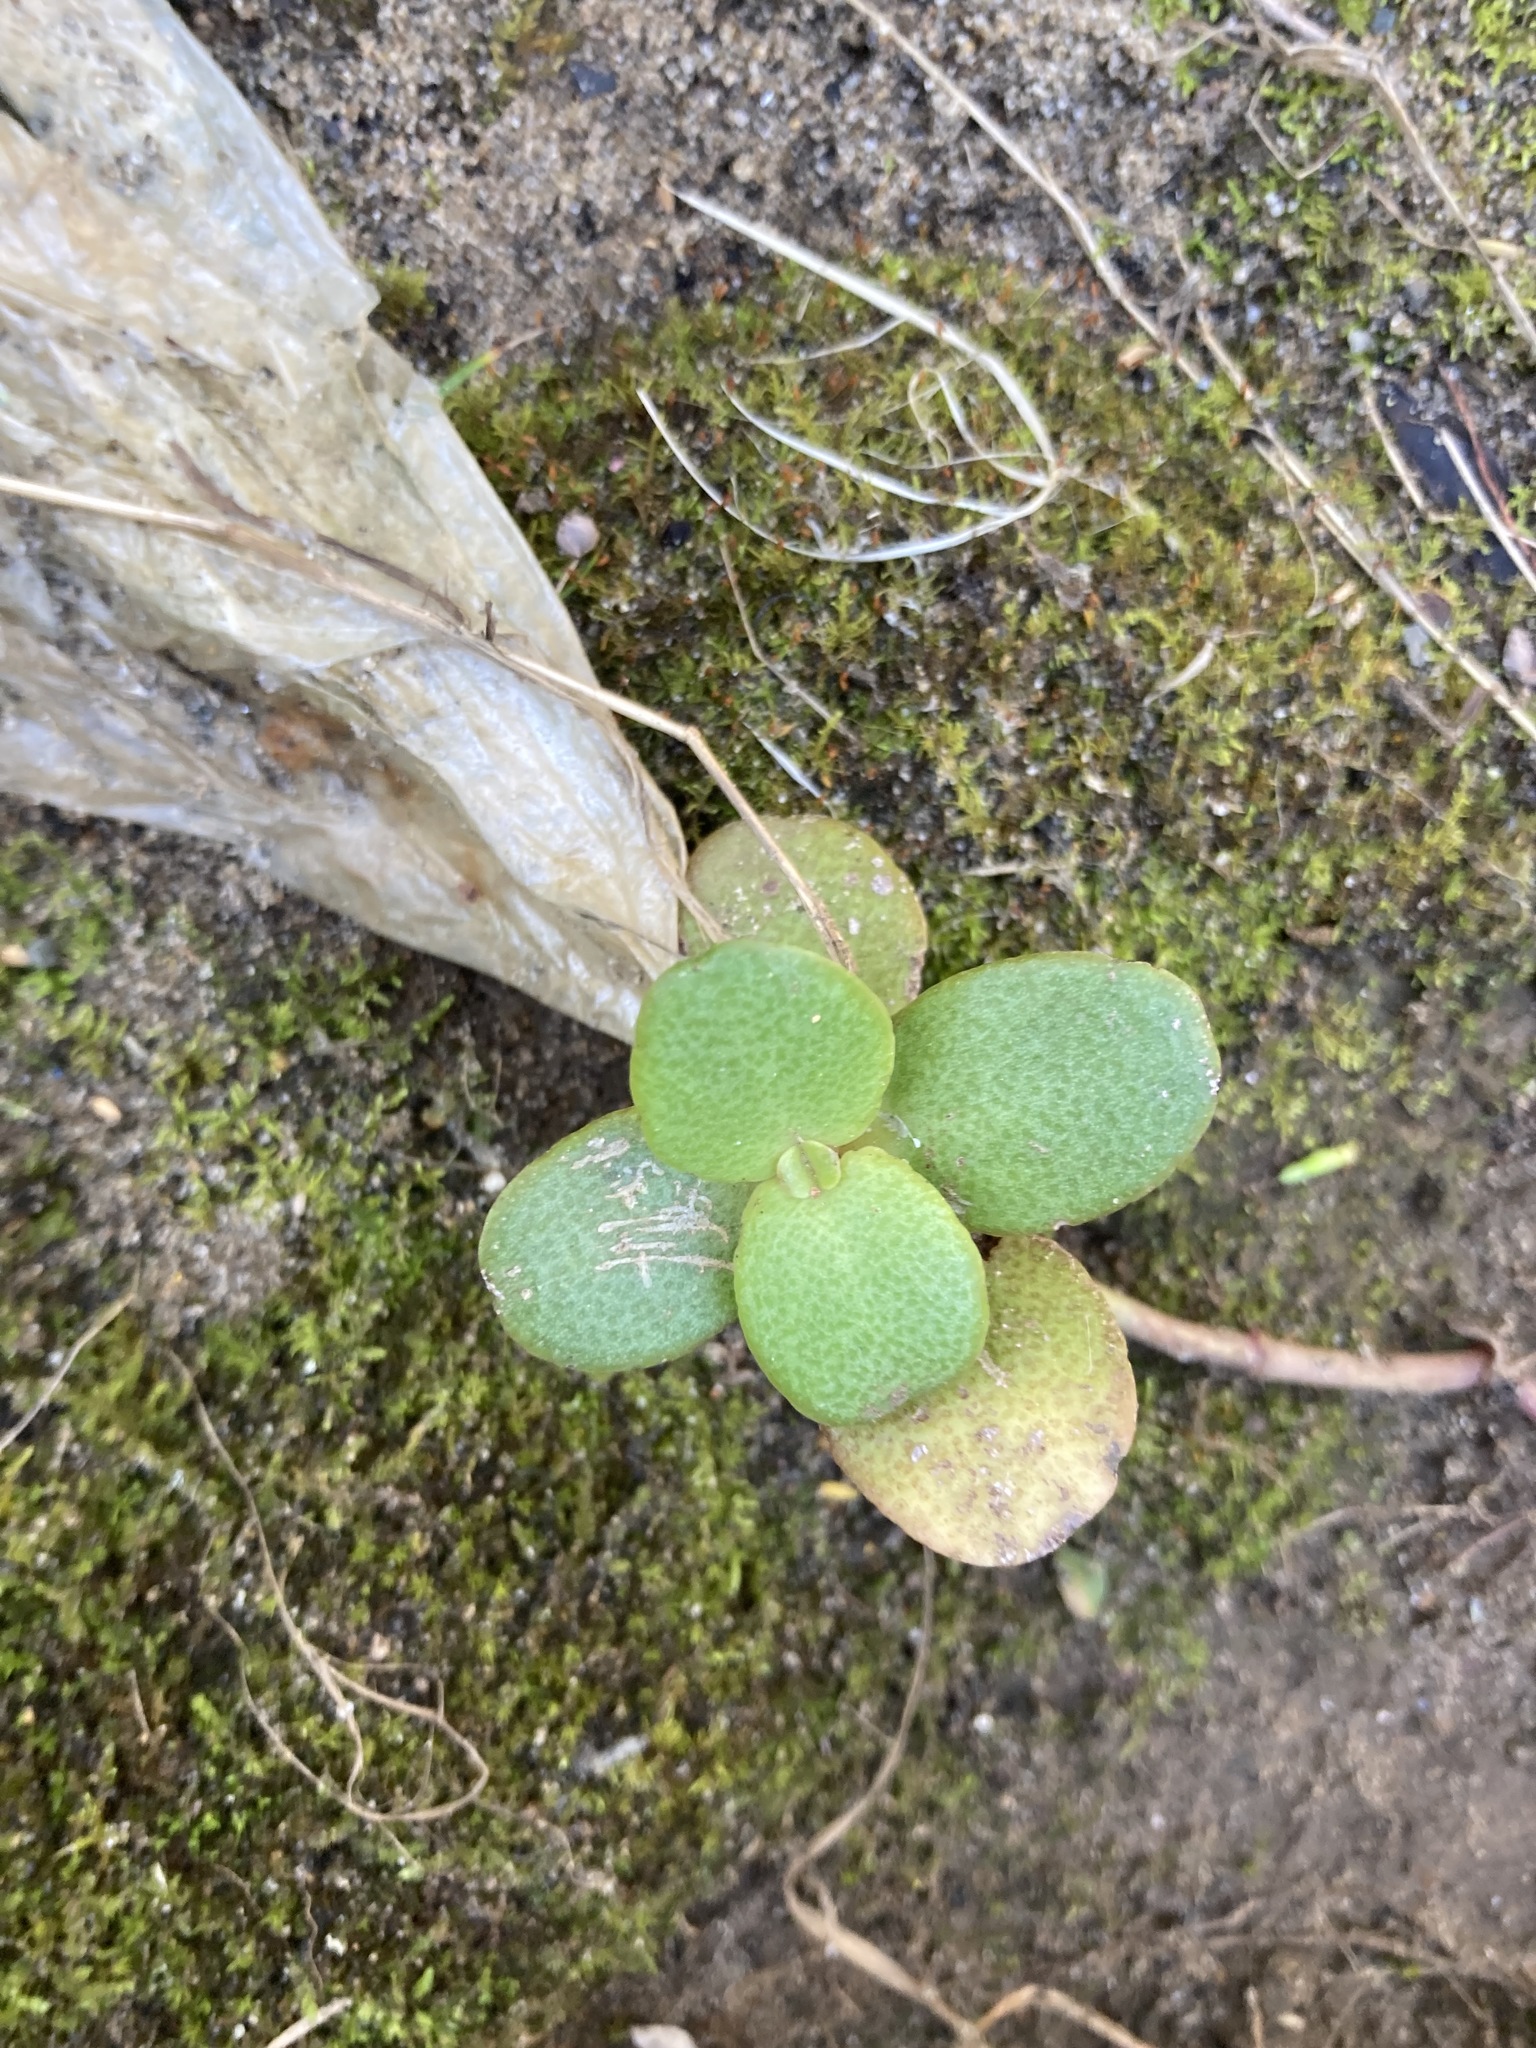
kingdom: Plantae
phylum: Tracheophyta
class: Magnoliopsida
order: Saxifragales
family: Crassulaceae
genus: Crassula
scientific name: Crassula multicava
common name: Cape province pygmyweed
